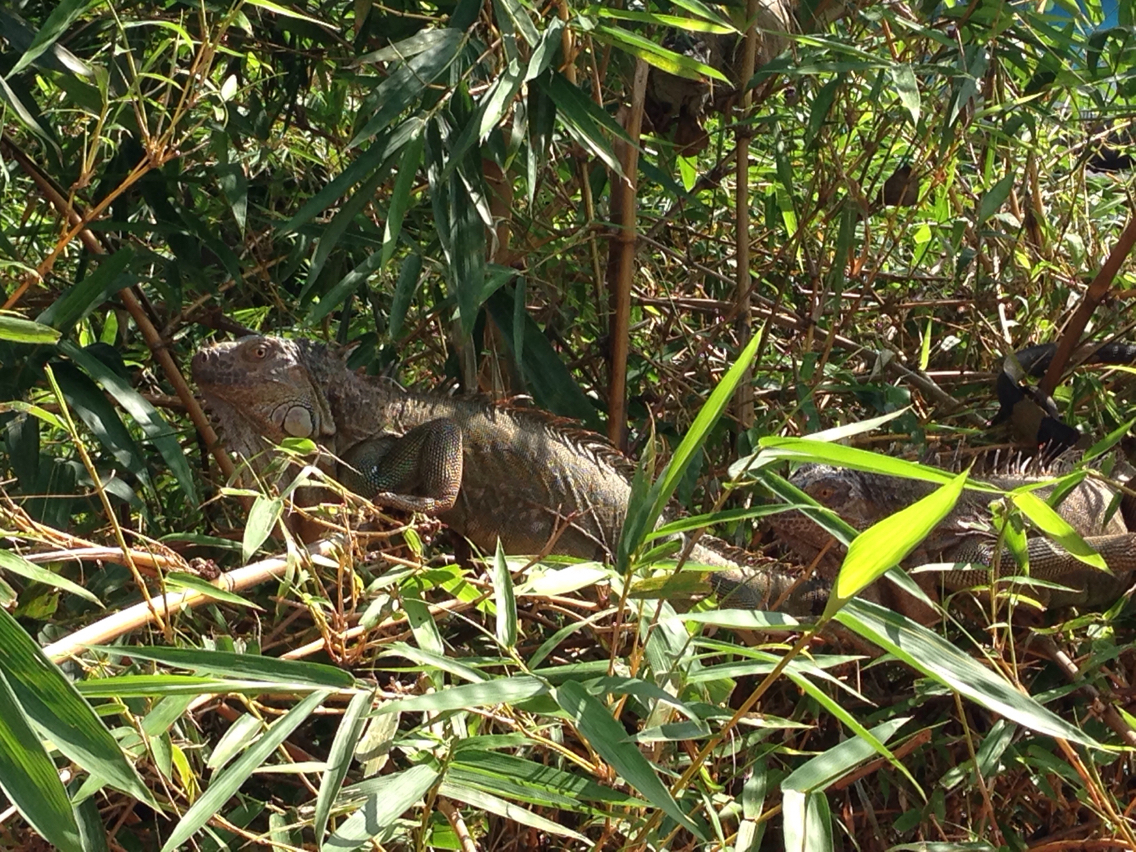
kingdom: Animalia
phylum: Chordata
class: Squamata
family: Iguanidae
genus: Iguana
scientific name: Iguana iguana
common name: Green iguana
